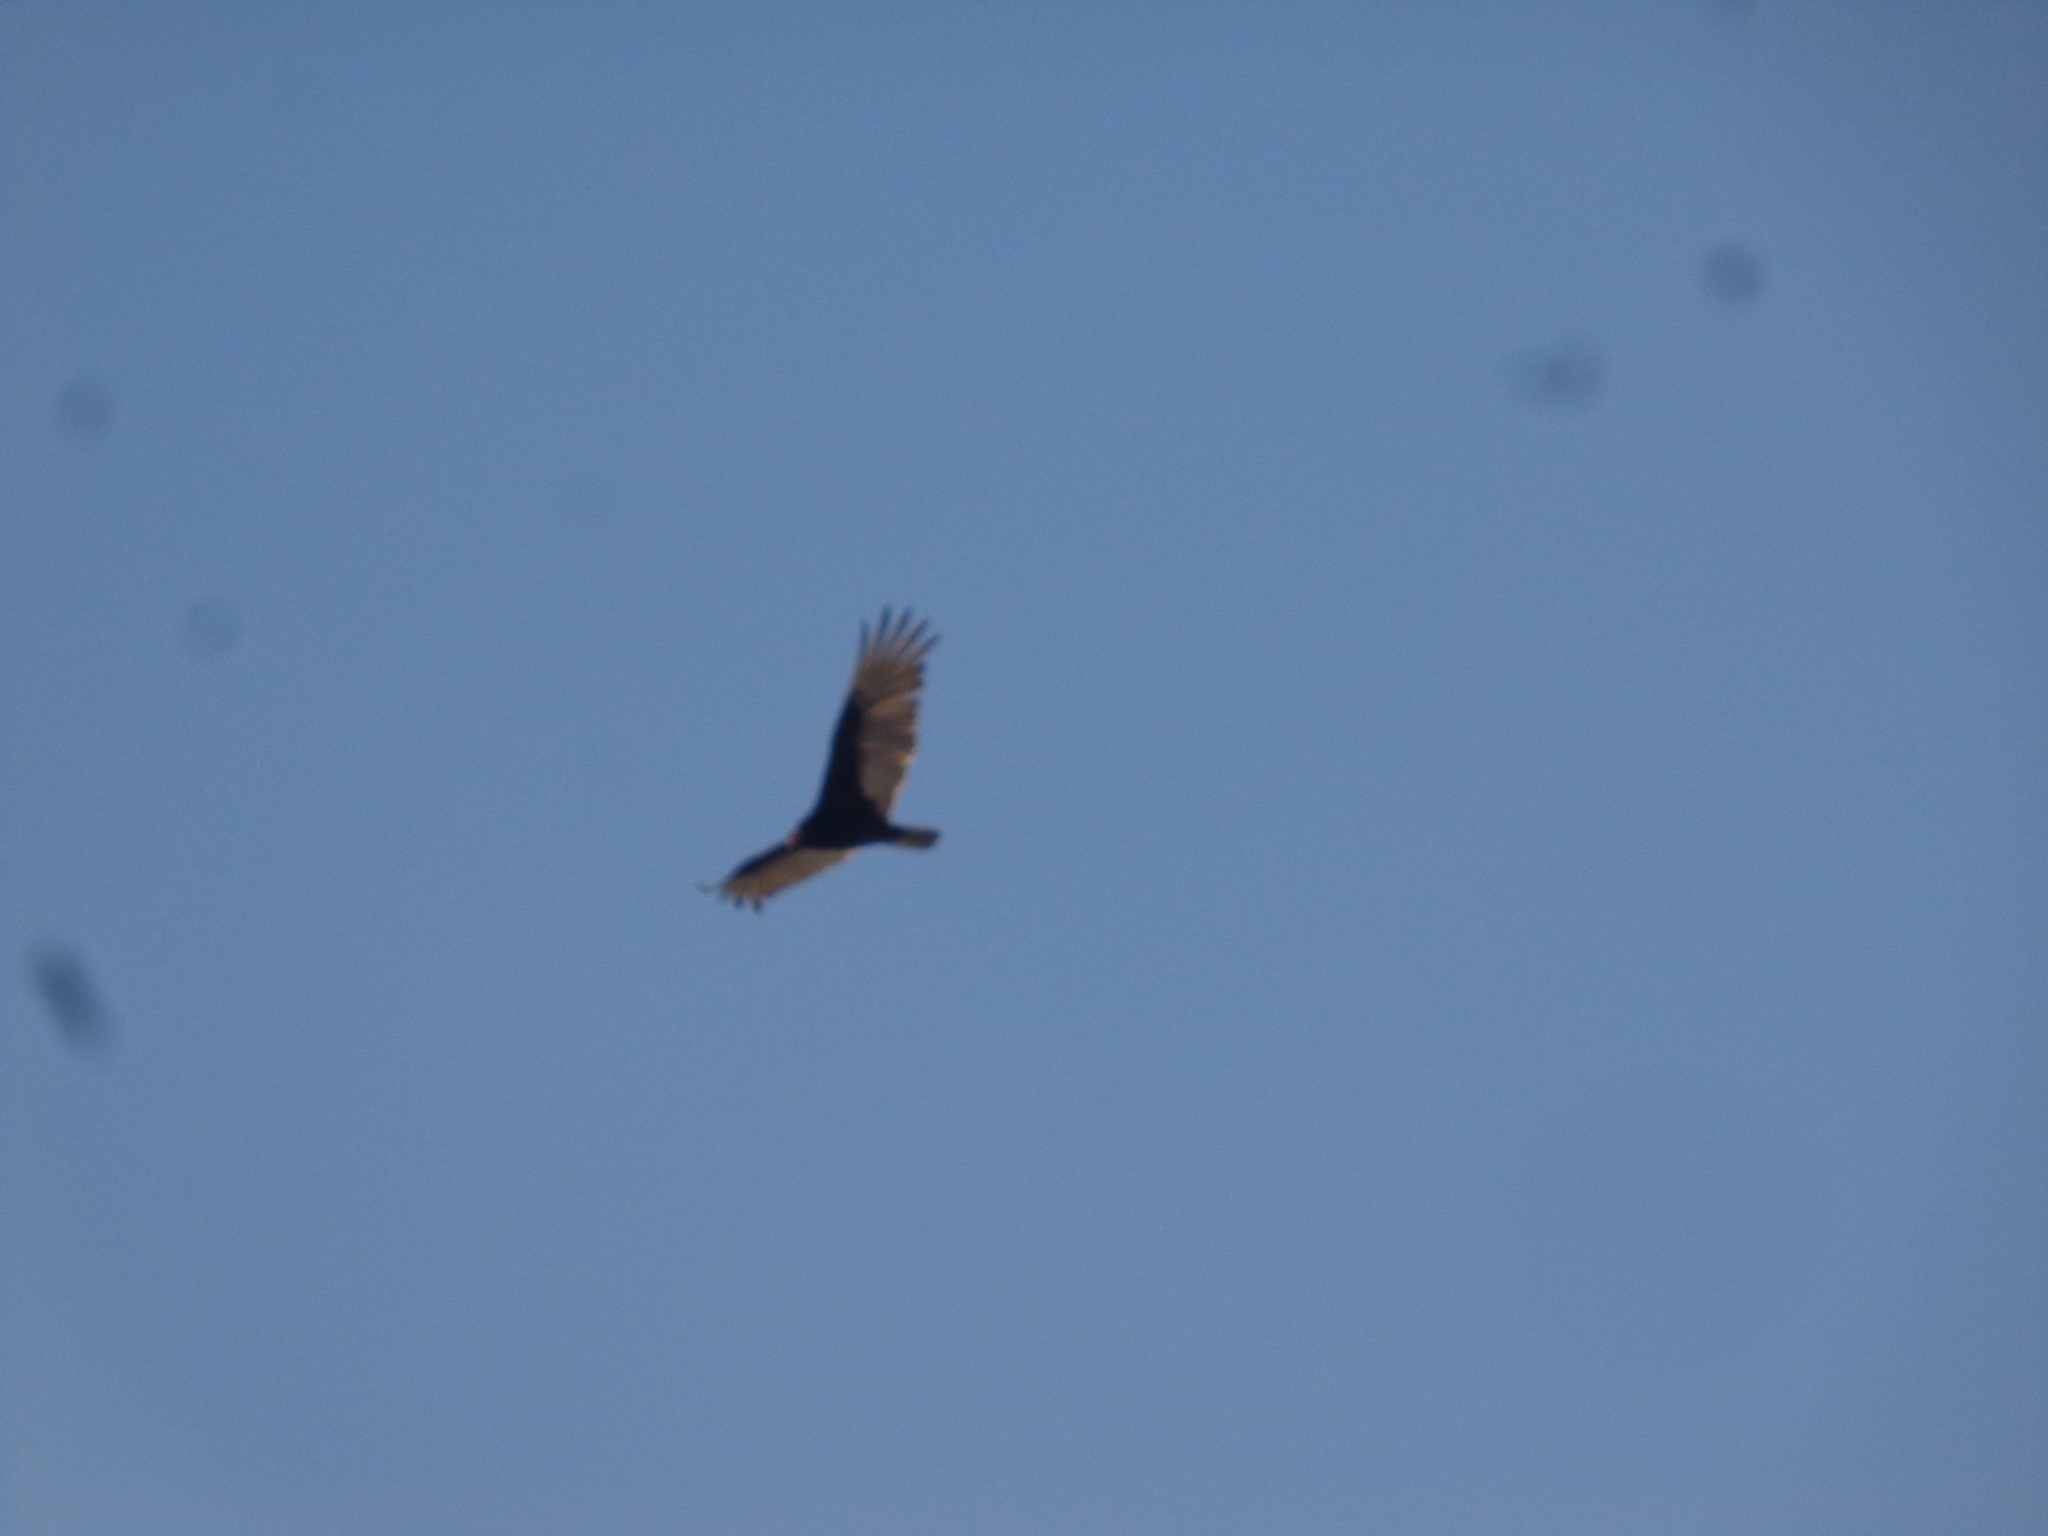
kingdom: Animalia
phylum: Chordata
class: Aves
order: Accipitriformes
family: Cathartidae
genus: Cathartes
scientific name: Cathartes aura
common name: Turkey vulture
